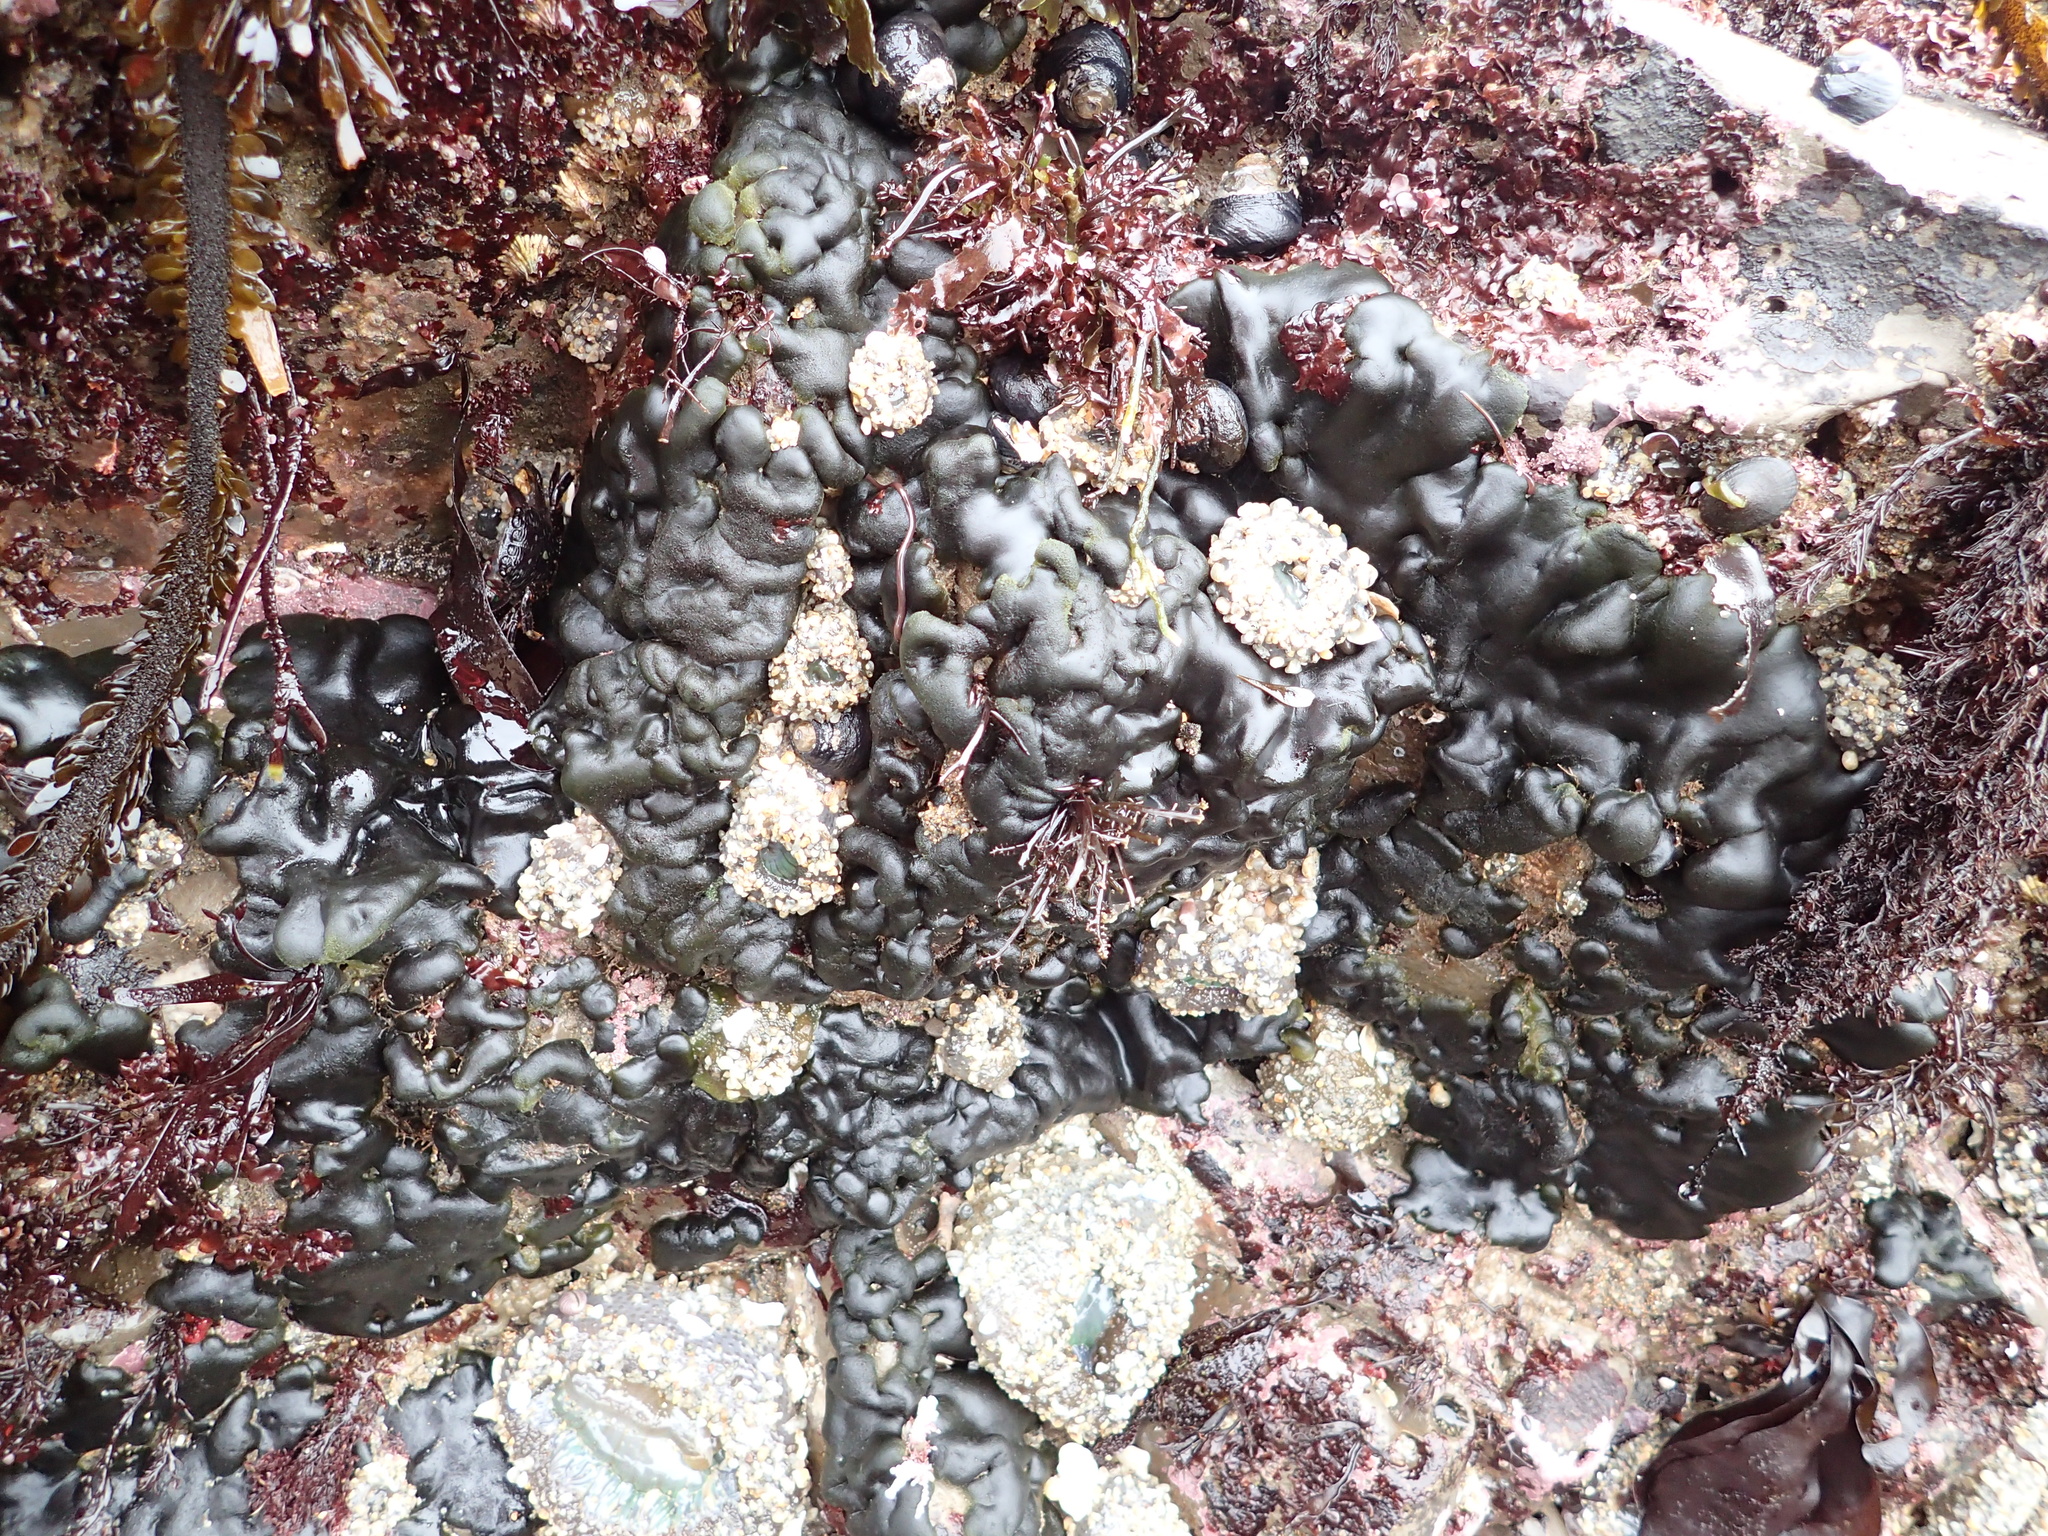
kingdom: Plantae
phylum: Chlorophyta
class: Ulvophyceae
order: Bryopsidales
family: Codiaceae
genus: Codium
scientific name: Codium setchellii
